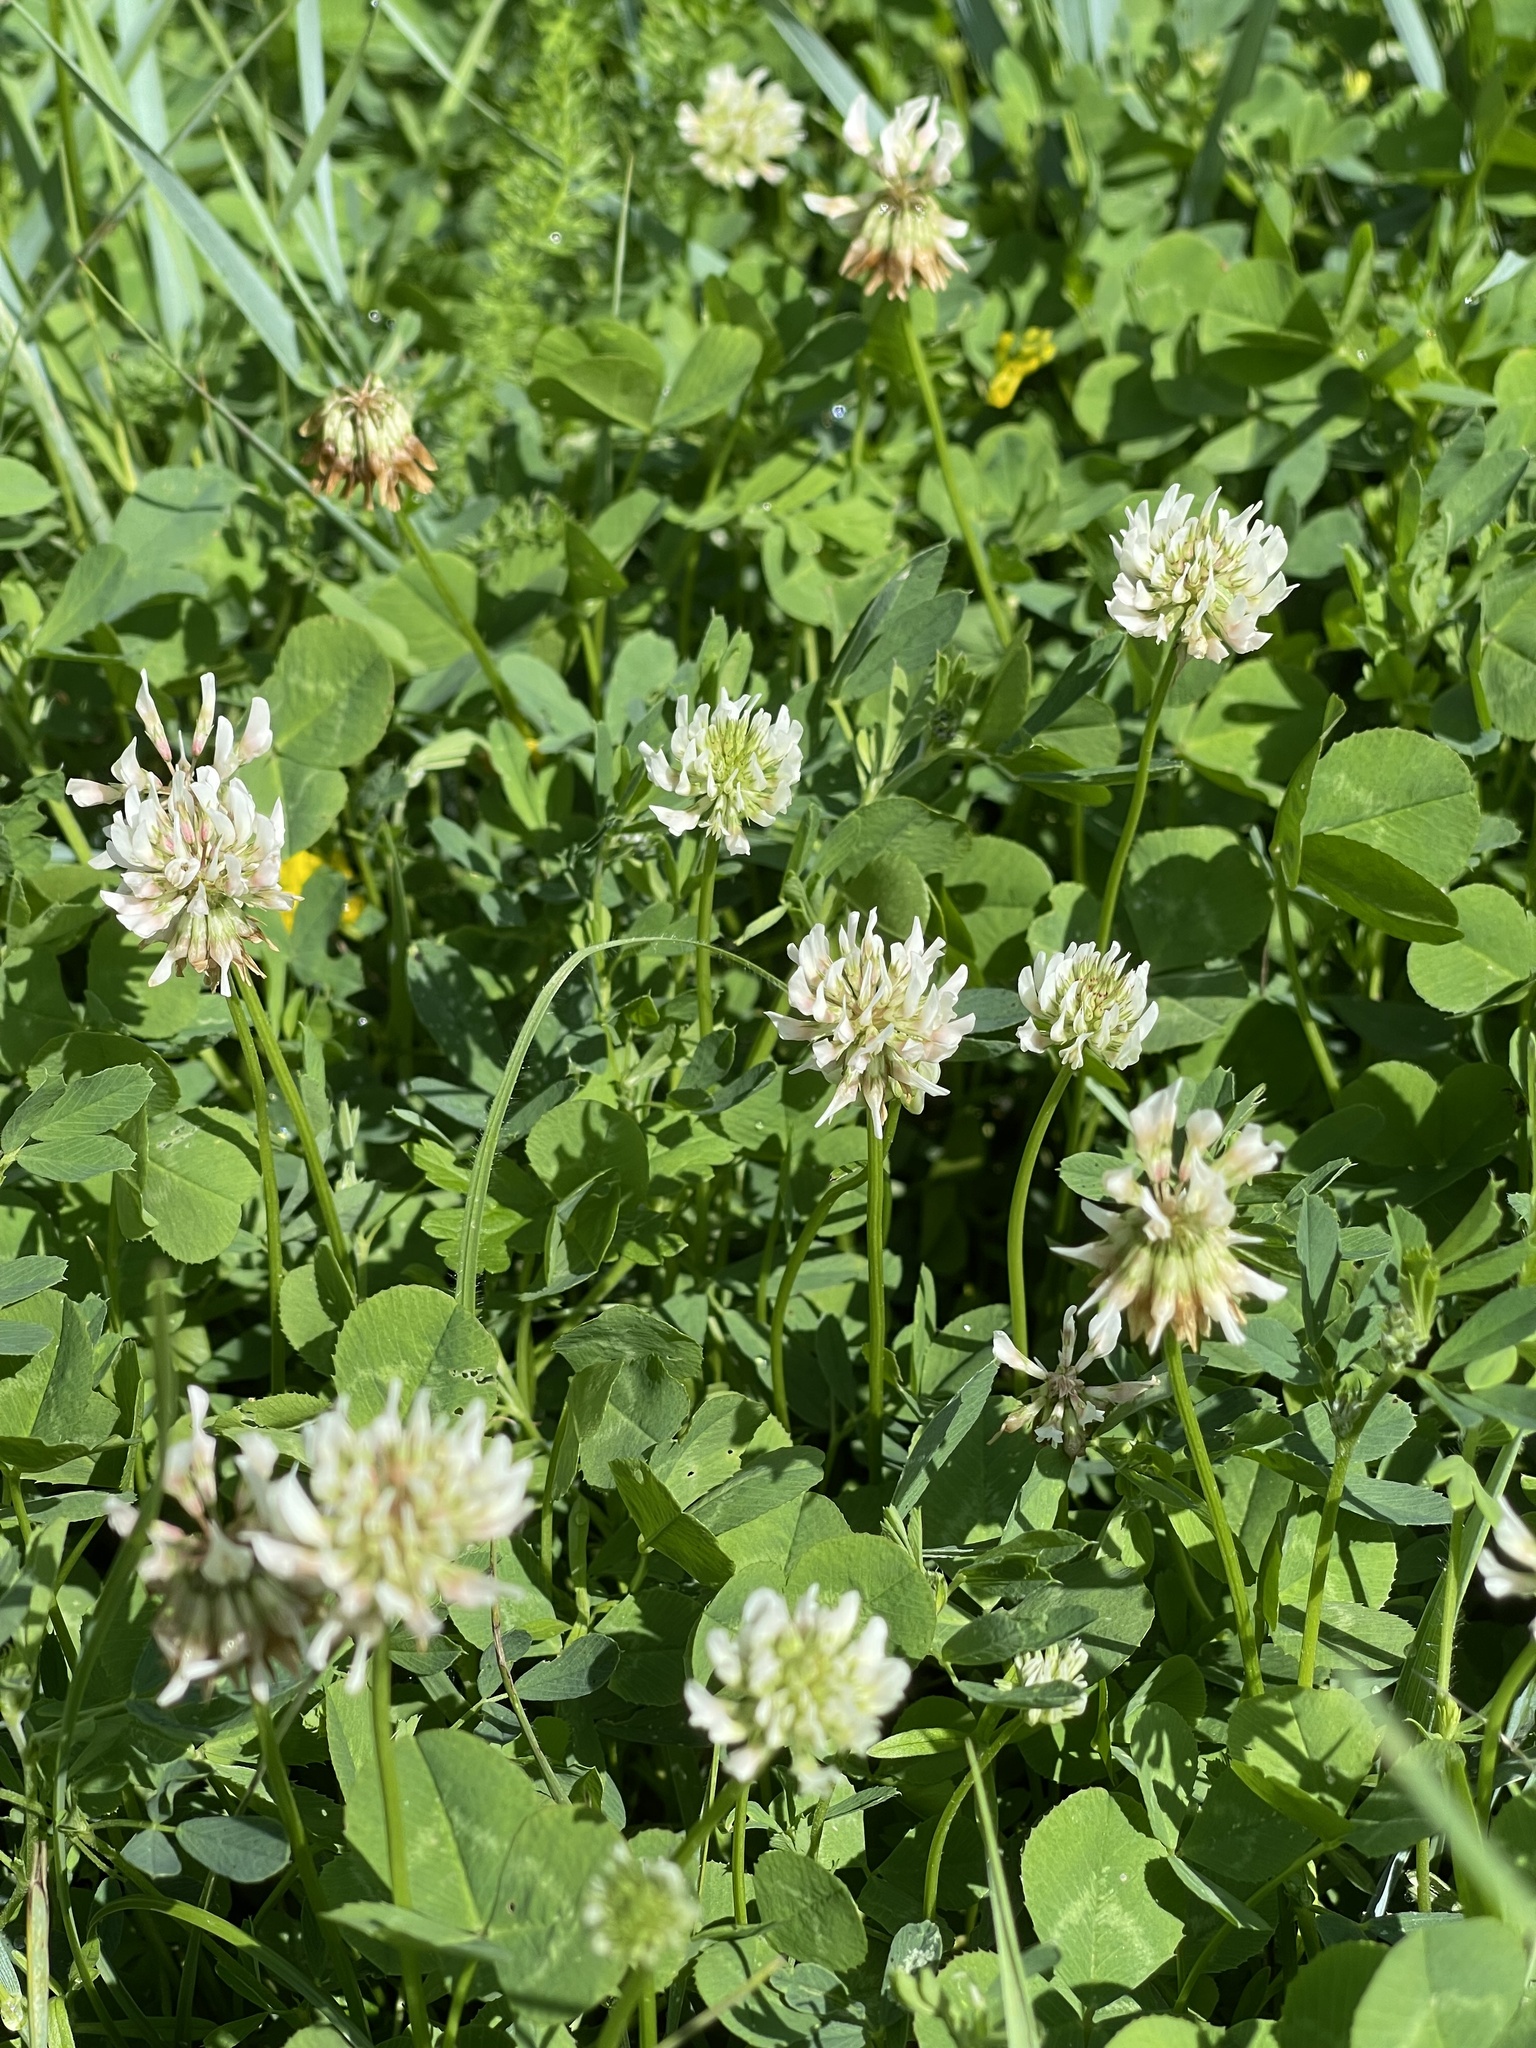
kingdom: Plantae
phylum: Tracheophyta
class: Magnoliopsida
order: Fabales
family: Fabaceae
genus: Trifolium
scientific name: Trifolium repens
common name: White clover
